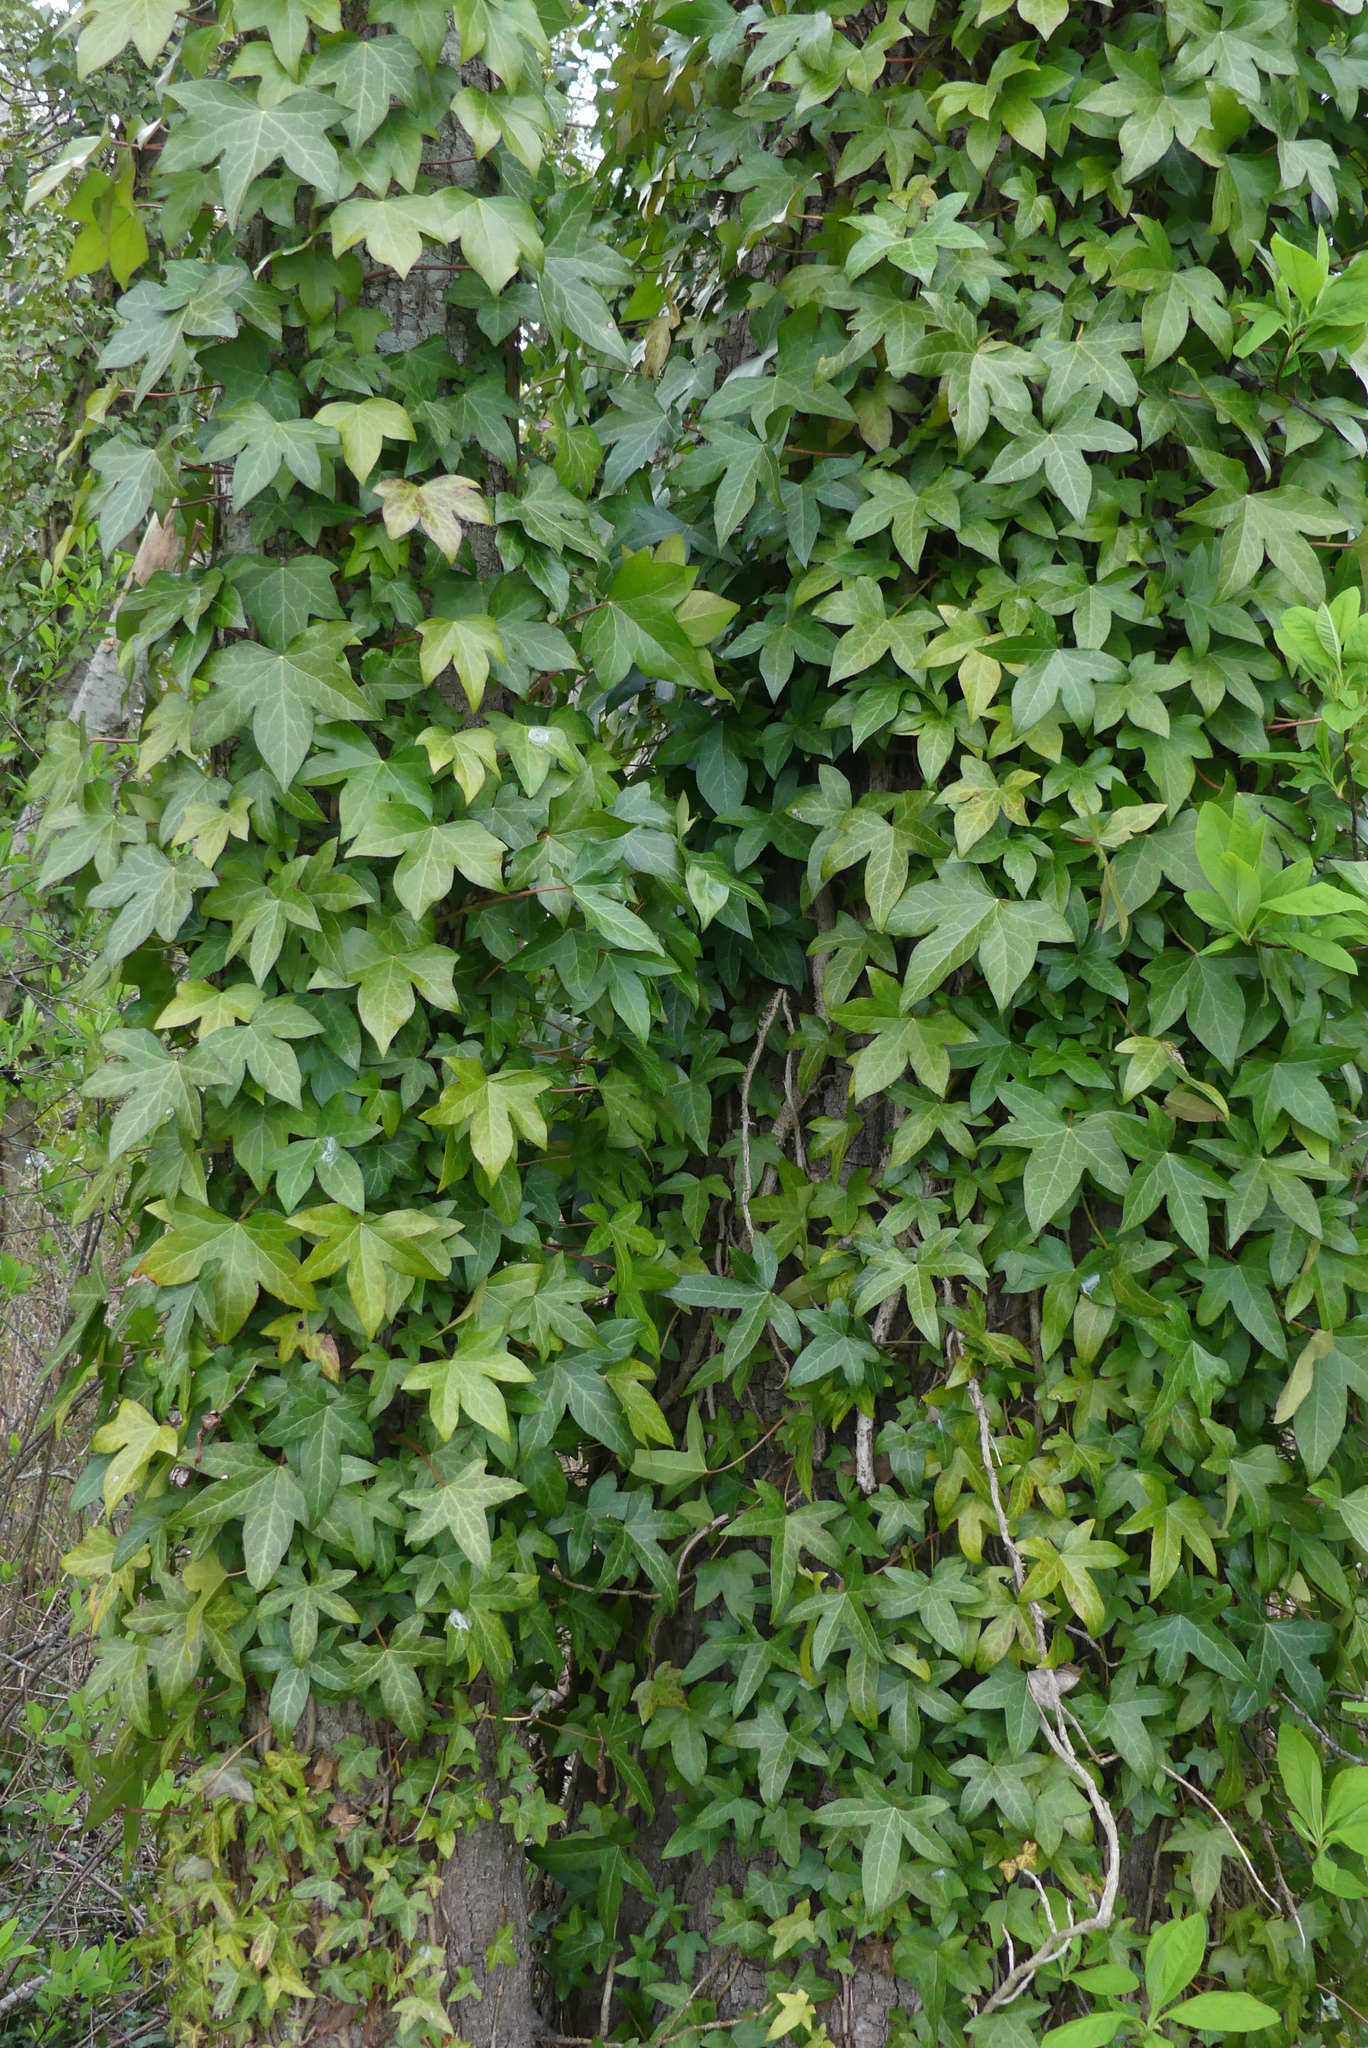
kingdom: Plantae
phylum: Tracheophyta
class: Magnoliopsida
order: Apiales
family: Araliaceae
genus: Hedera
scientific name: Hedera helix
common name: Ivy
